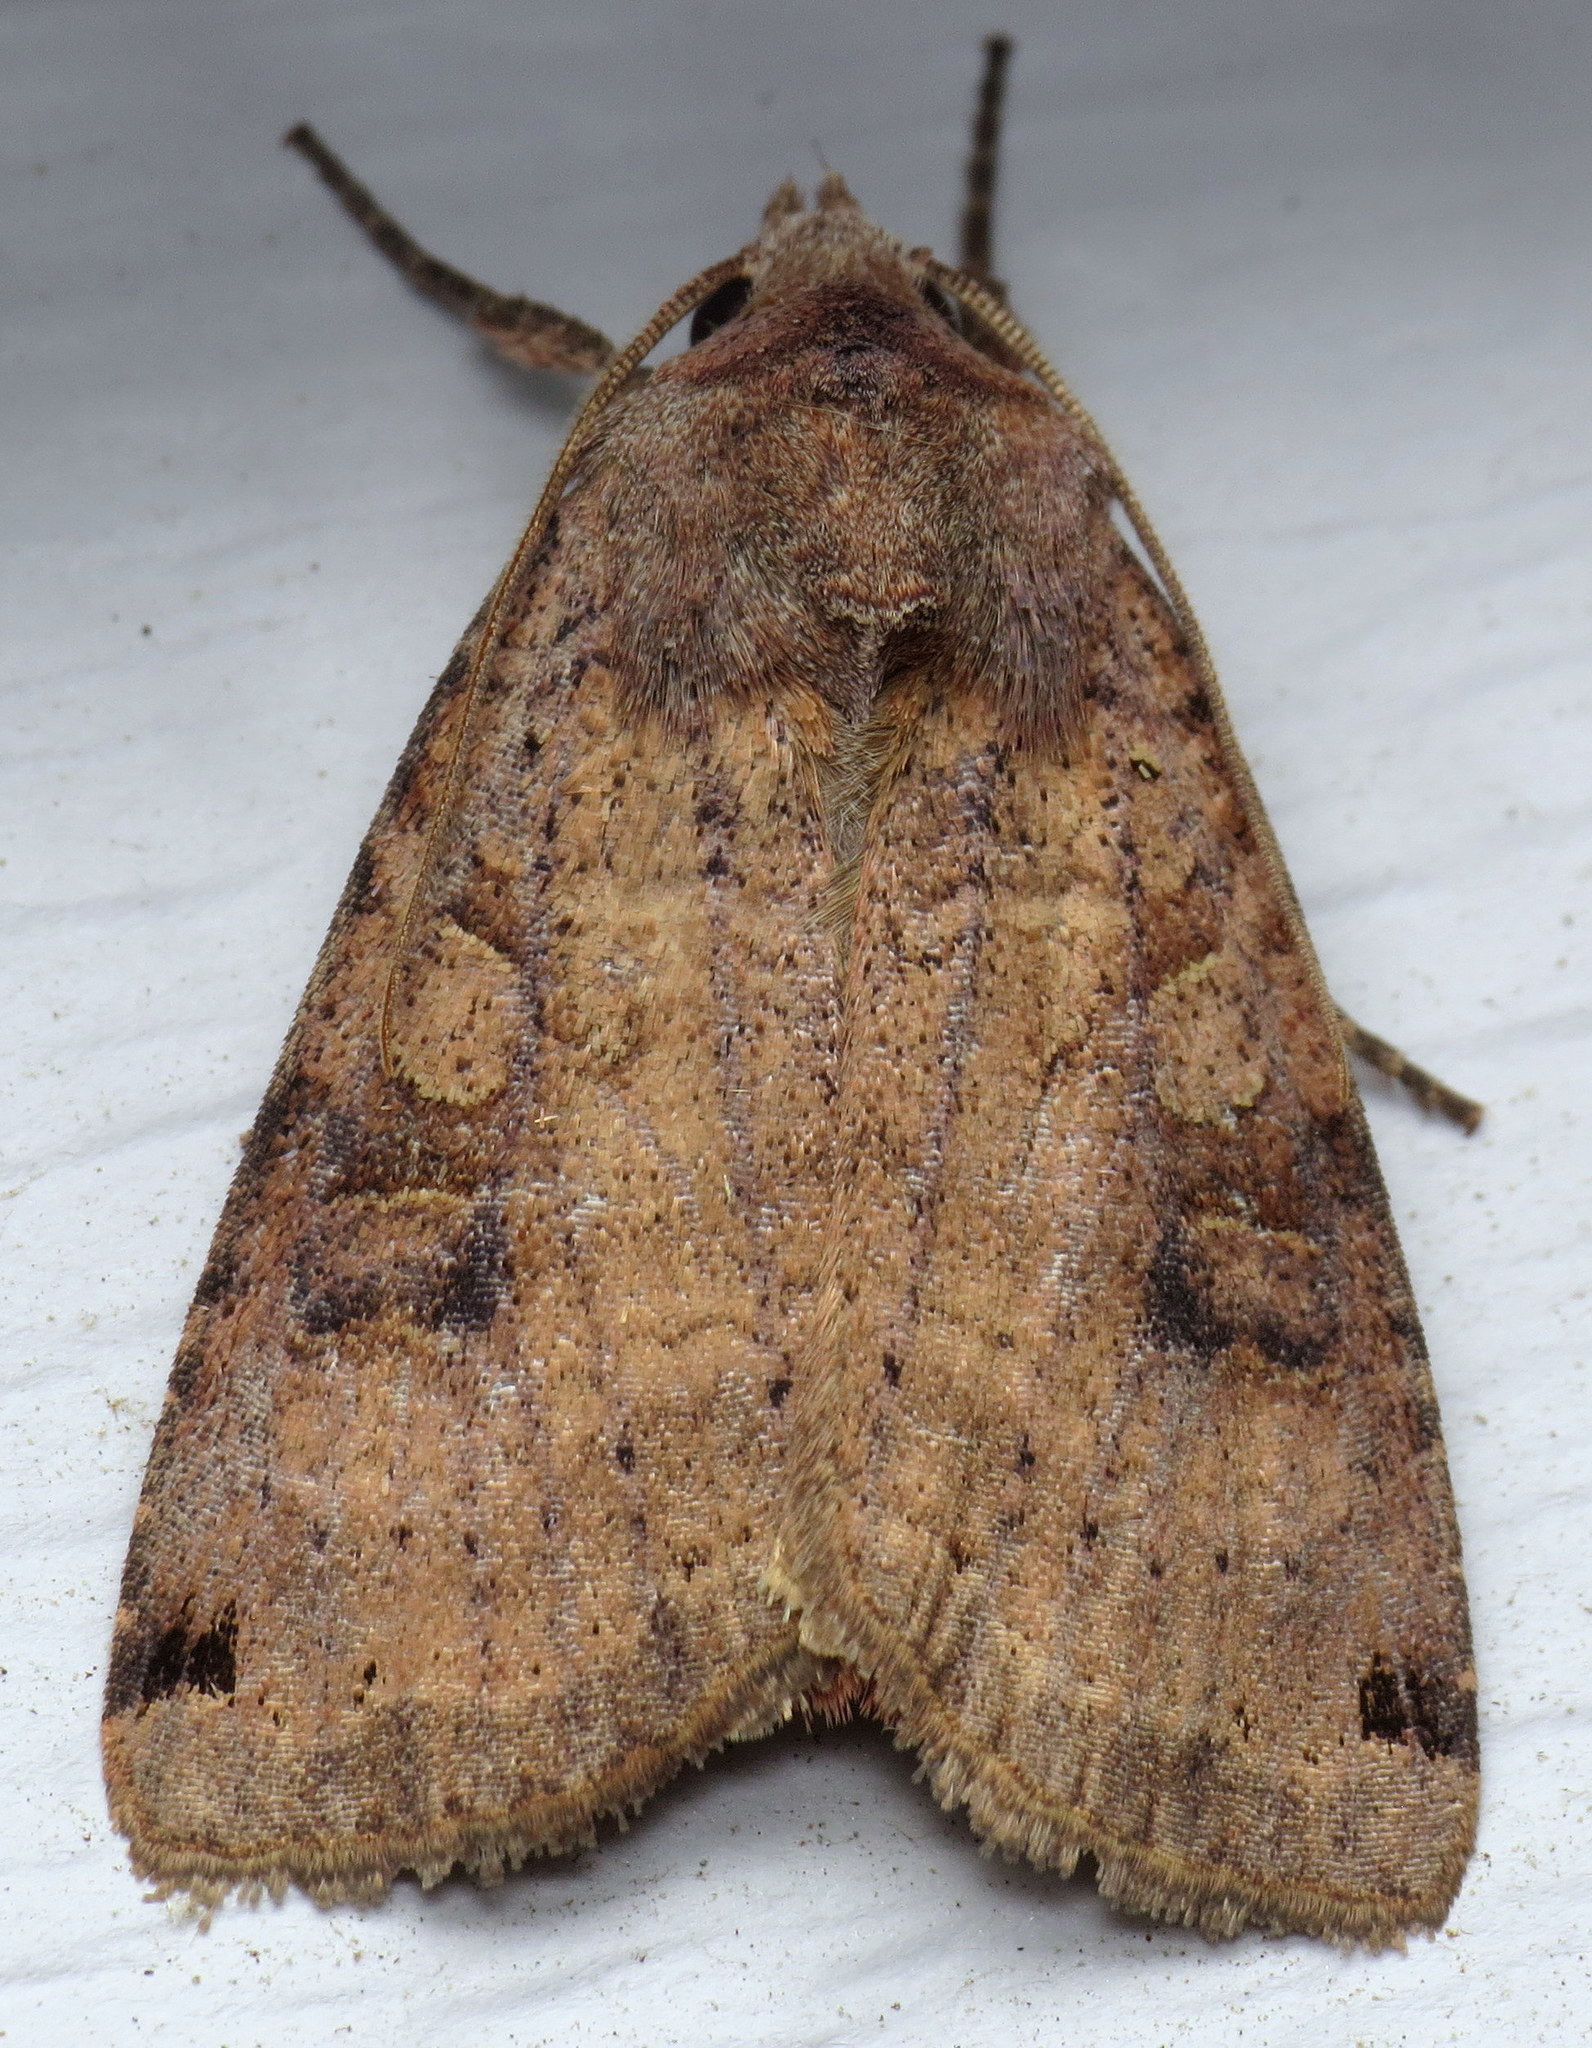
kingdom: Animalia
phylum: Arthropoda
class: Insecta
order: Lepidoptera
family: Noctuidae
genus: Xestia
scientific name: Xestia smithii
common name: Smith's dart
